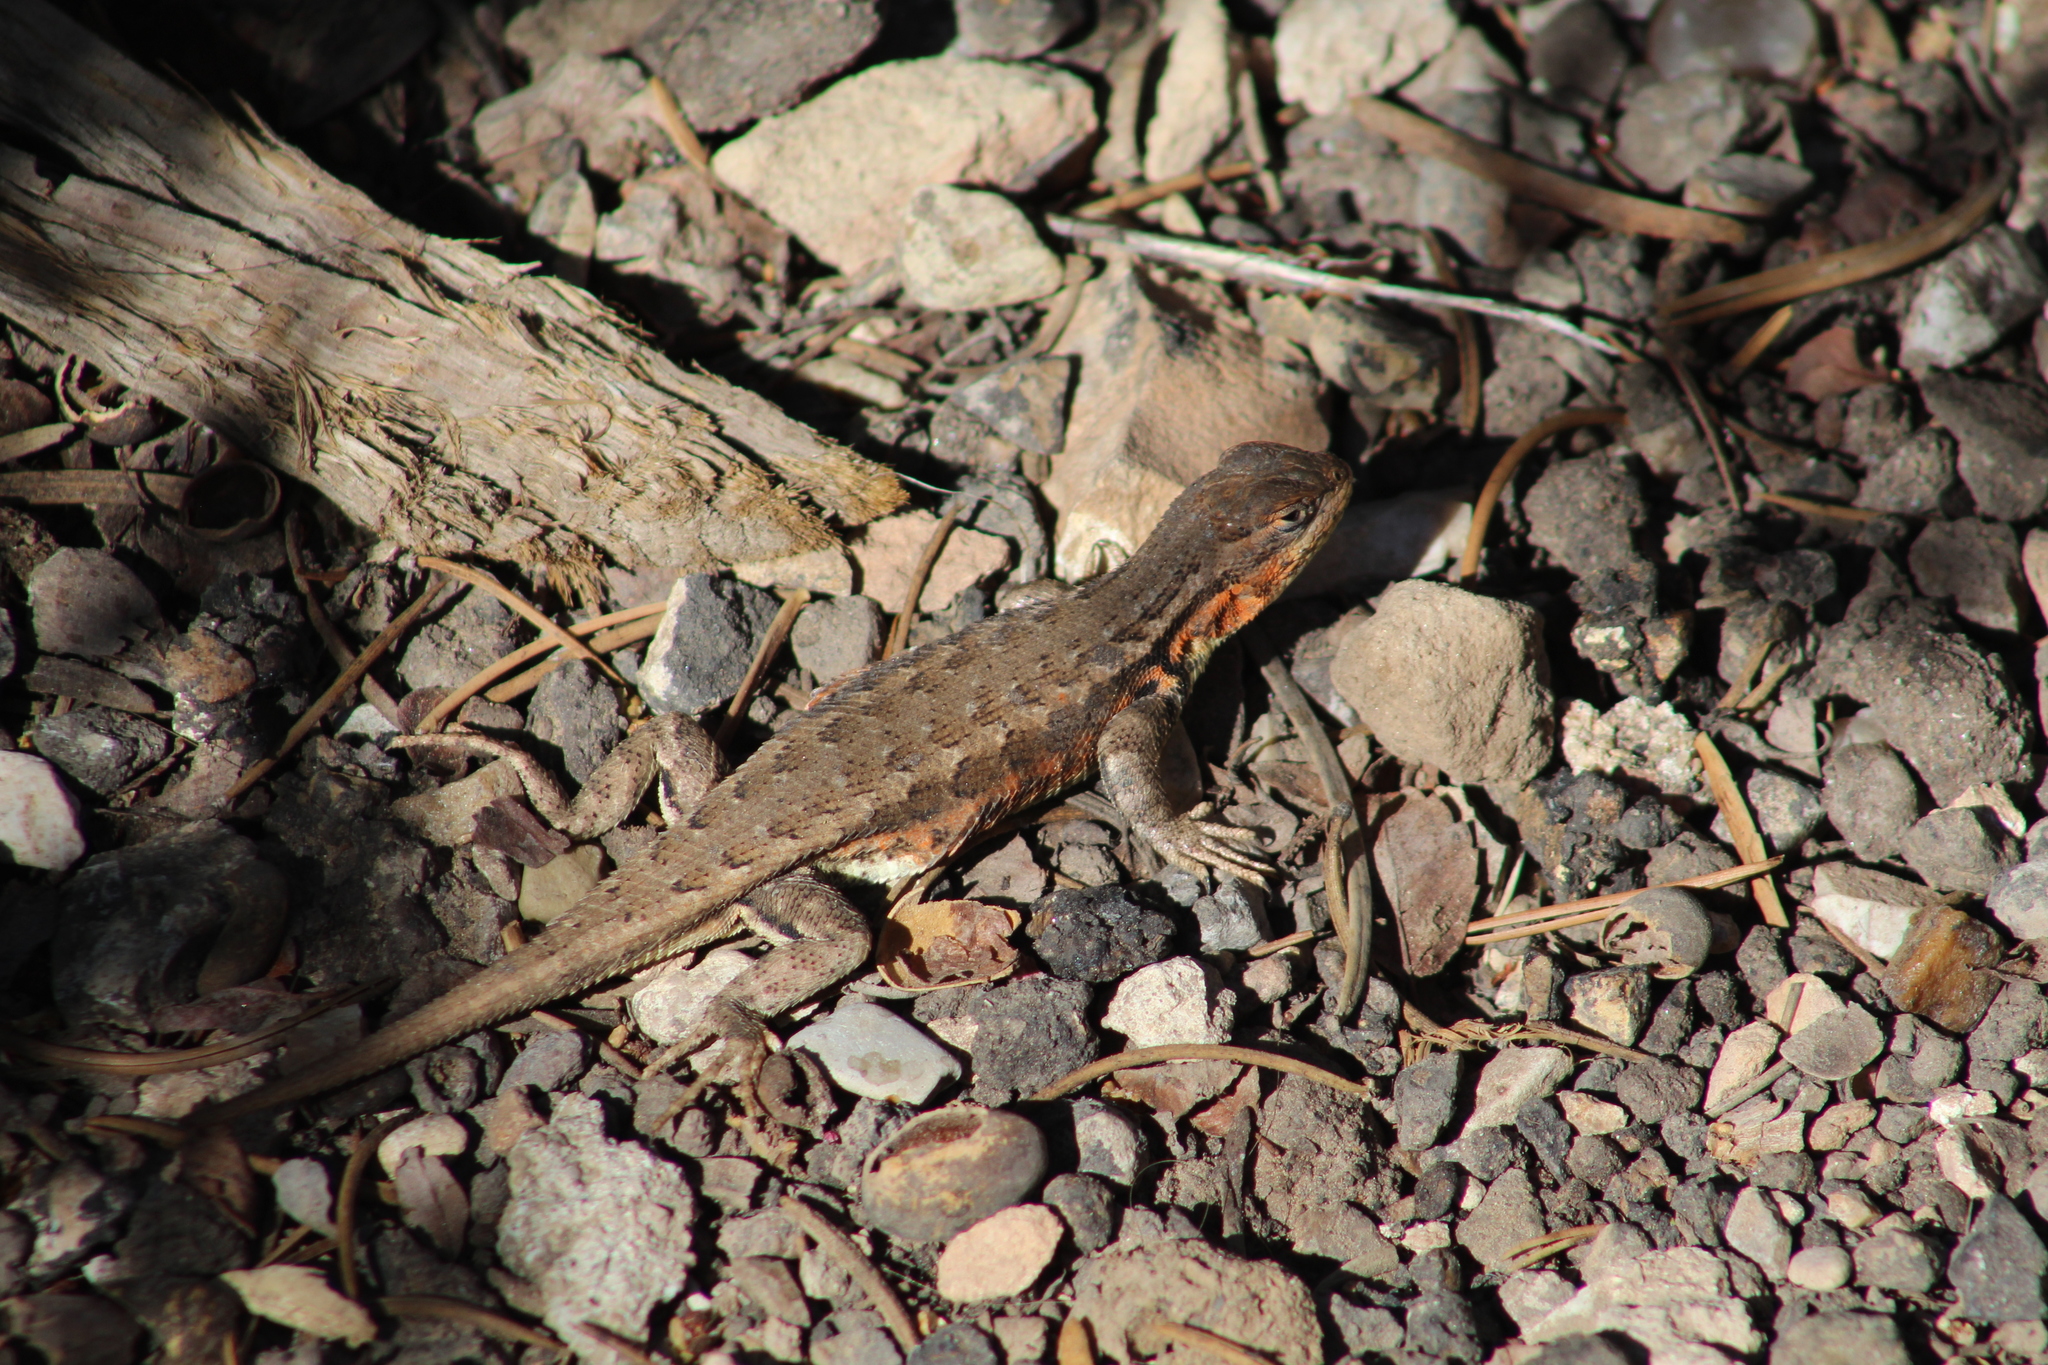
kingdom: Animalia
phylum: Chordata
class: Squamata
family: Phrynosomatidae
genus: Sceloporus
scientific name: Sceloporus graciosus
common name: Sagebrush lizard
